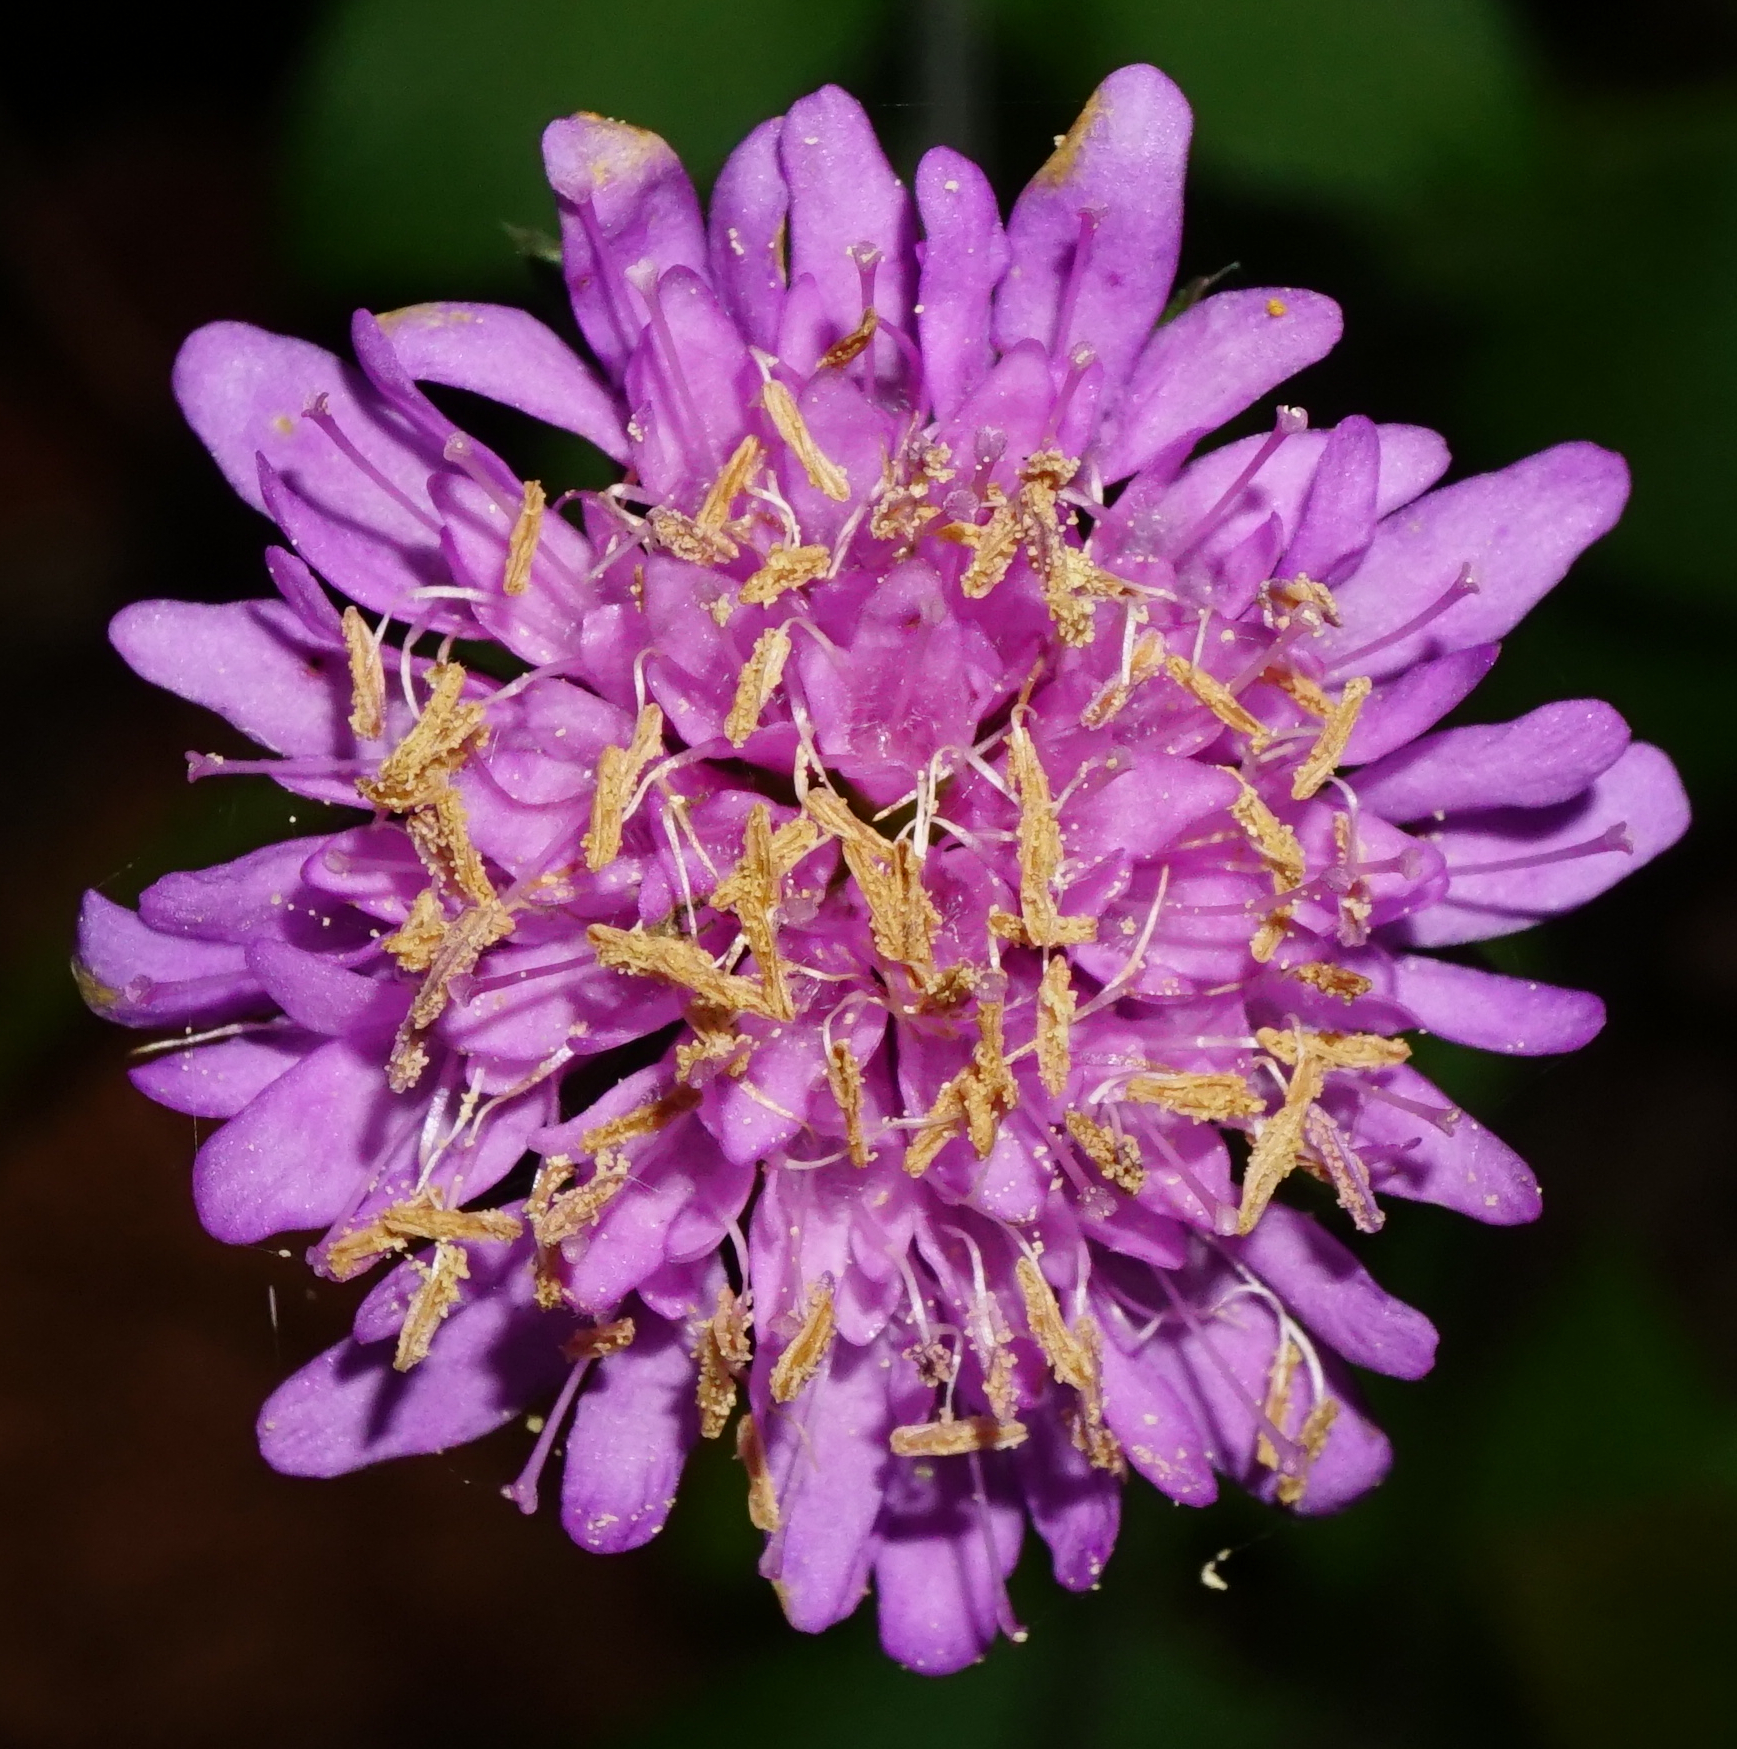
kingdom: Plantae
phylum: Tracheophyta
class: Magnoliopsida
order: Dipsacales
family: Caprifoliaceae
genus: Knautia
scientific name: Knautia drymeia
